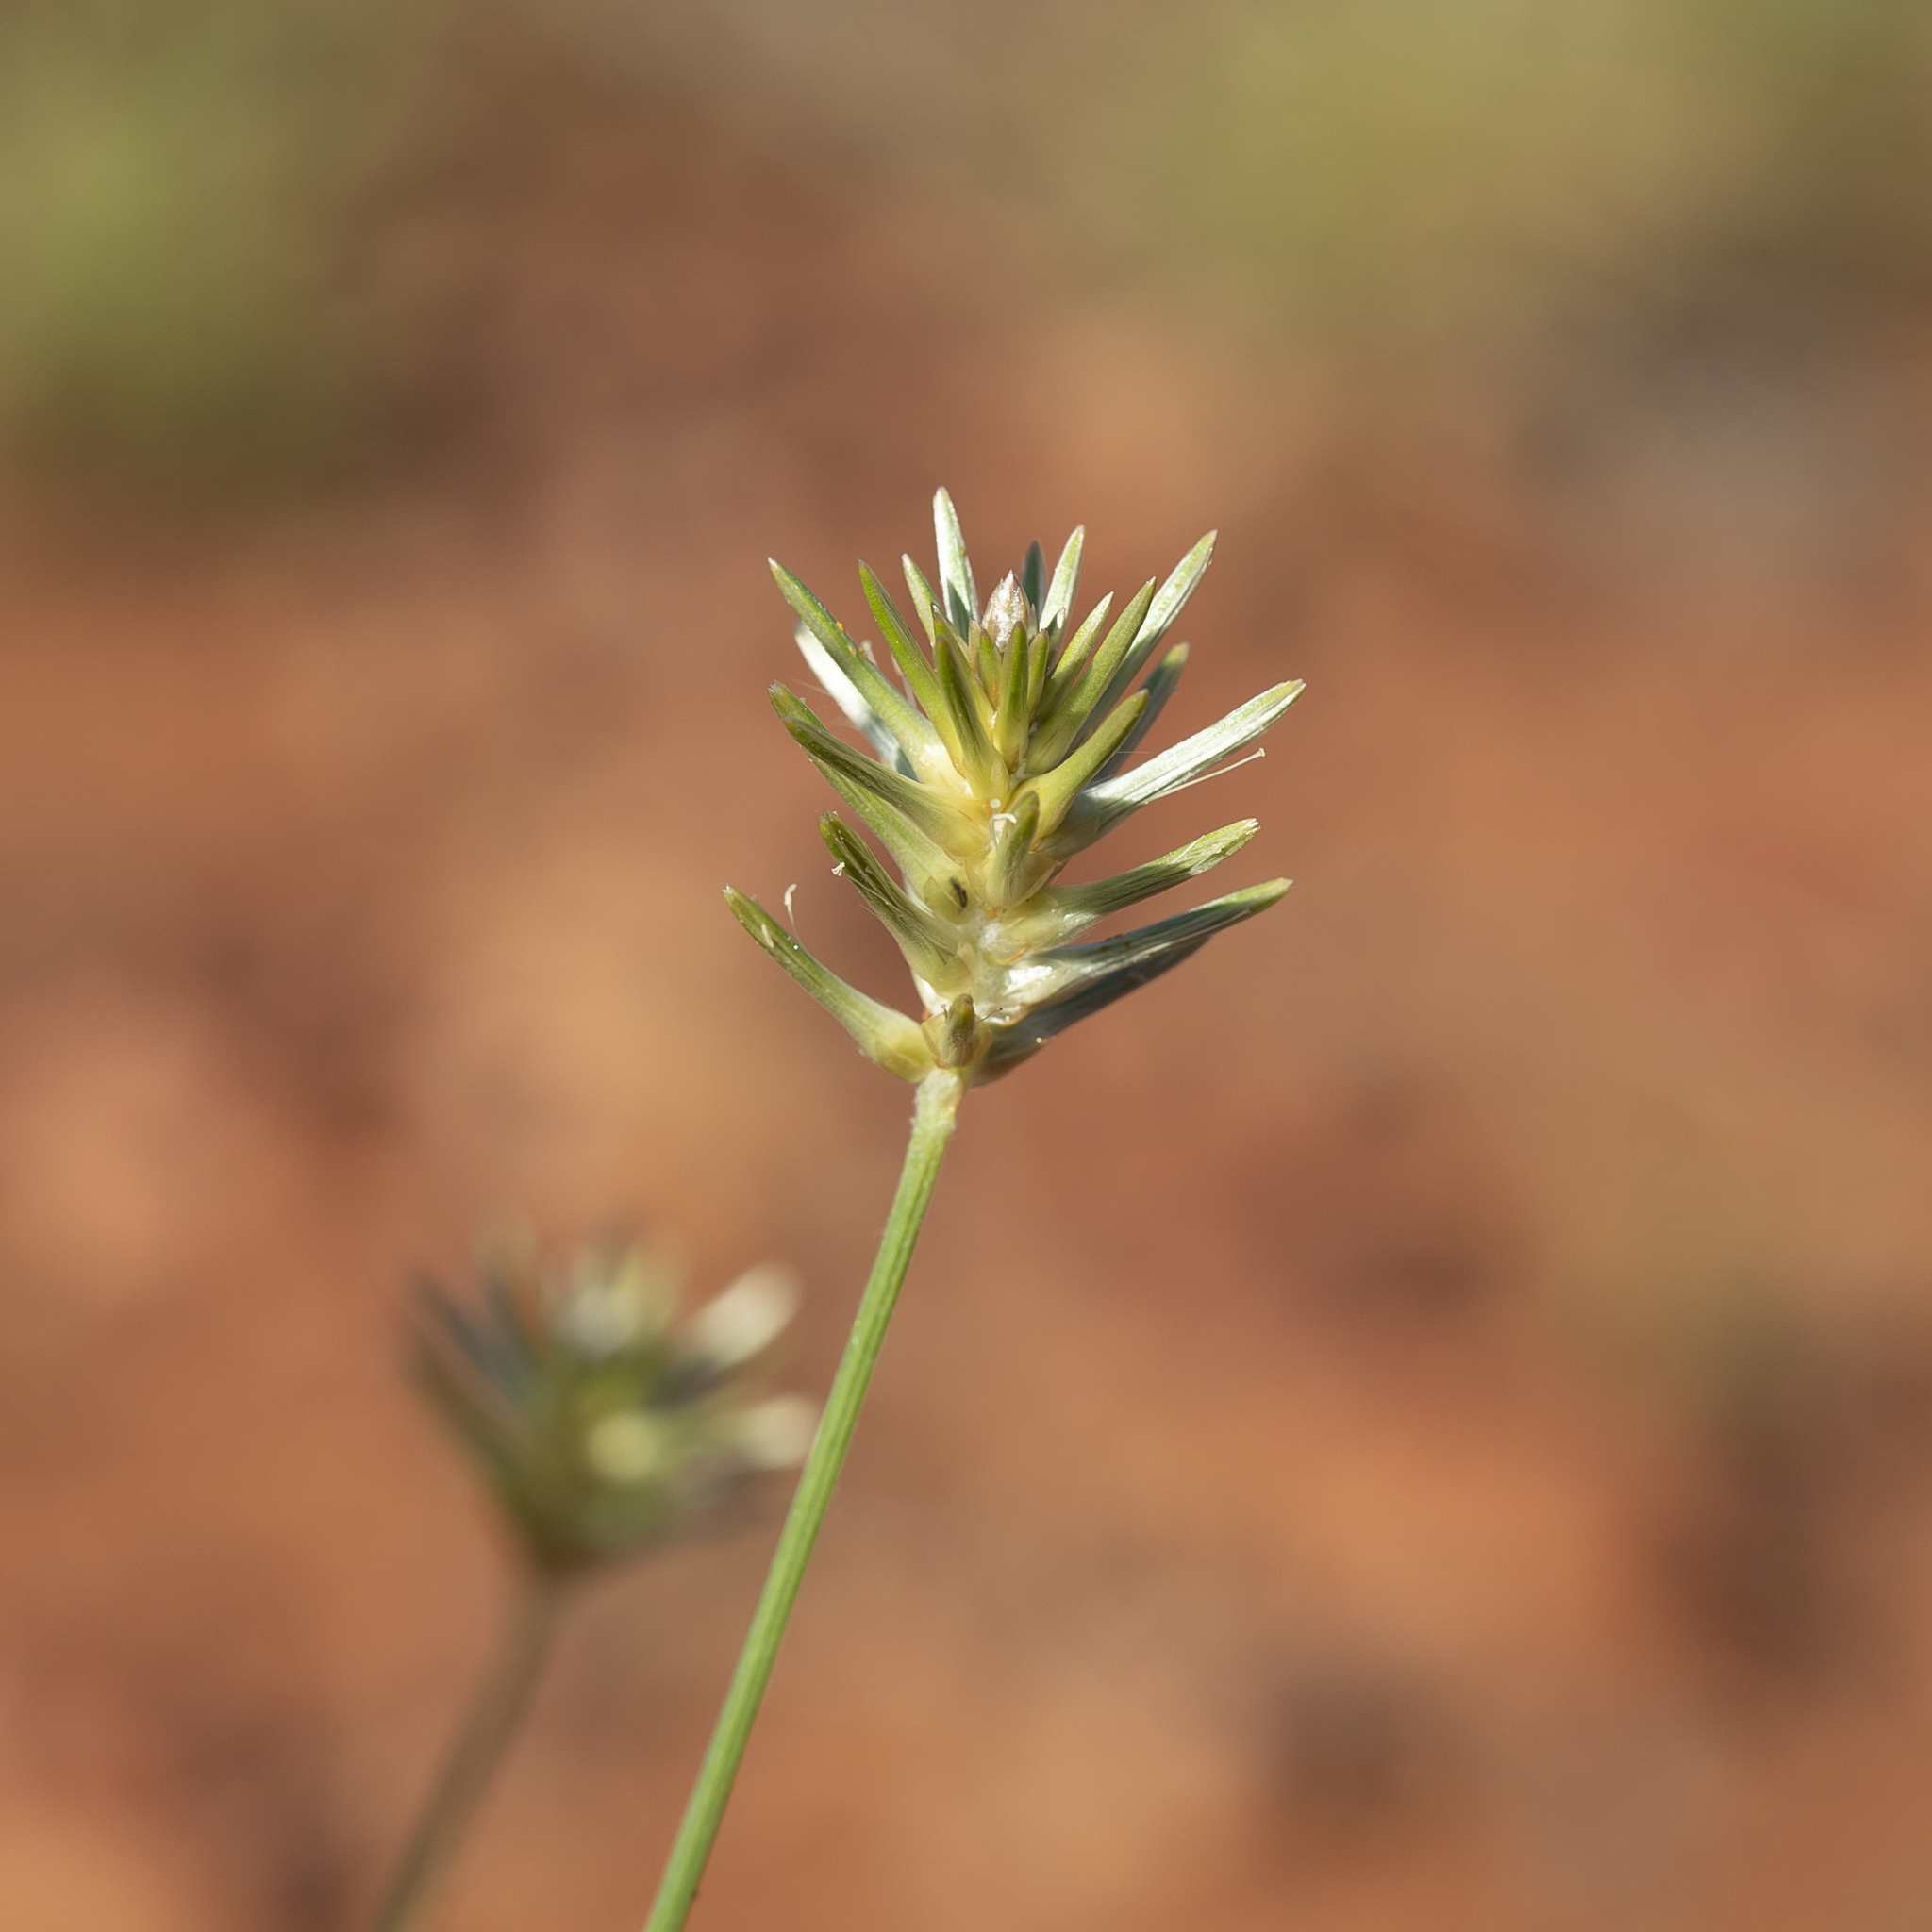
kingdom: Plantae
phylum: Tracheophyta
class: Magnoliopsida
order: Caryophyllales
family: Amaranthaceae
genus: Ptilotus
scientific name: Ptilotus fusiformis
